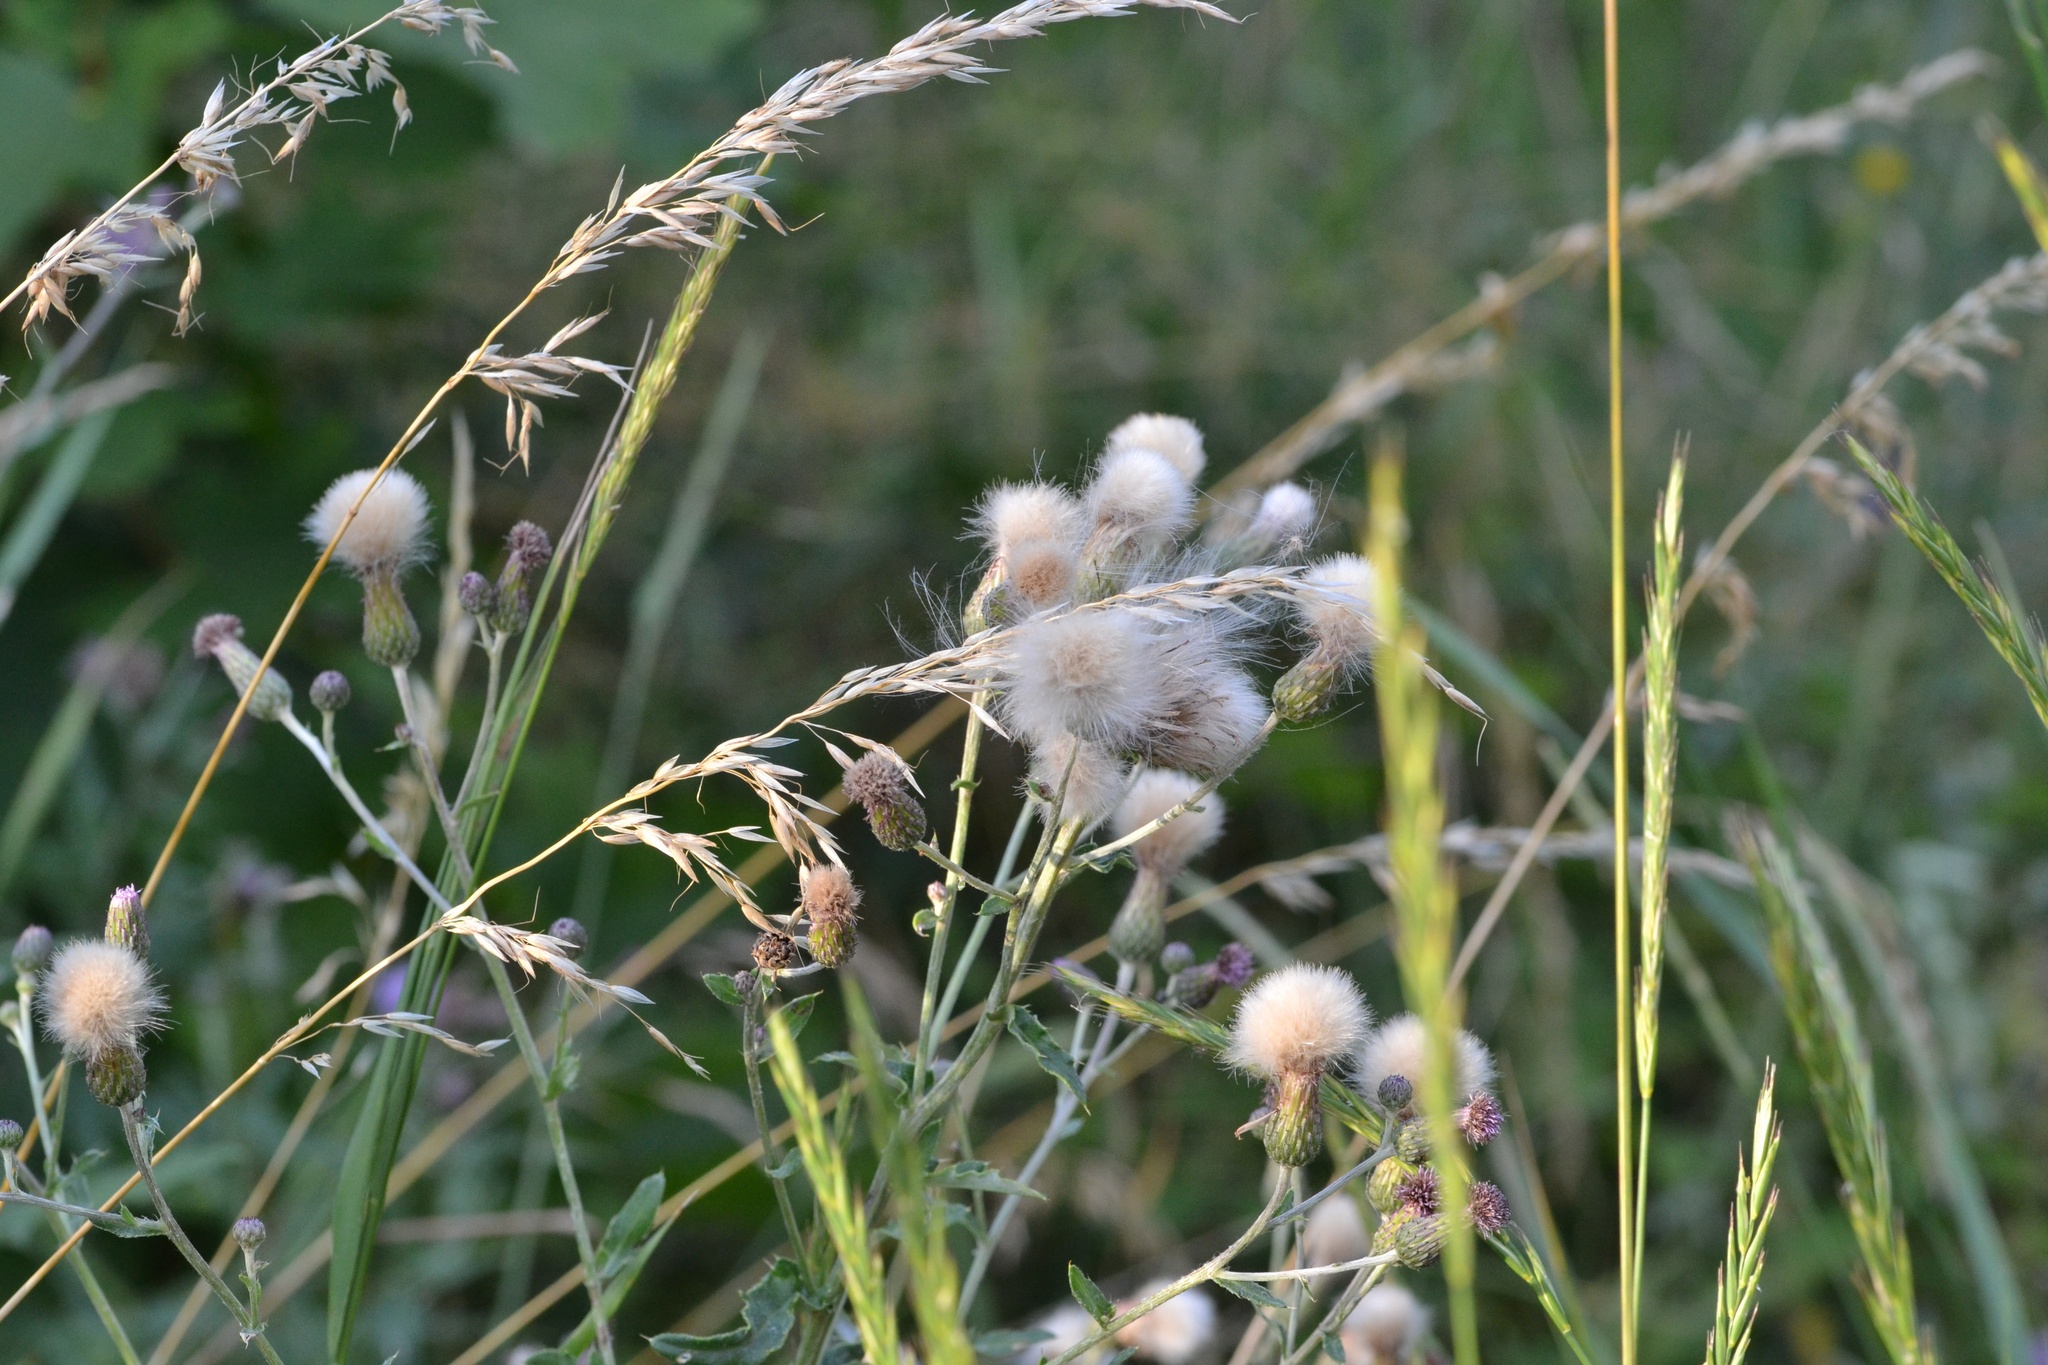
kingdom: Plantae
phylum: Tracheophyta
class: Magnoliopsida
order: Asterales
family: Asteraceae
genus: Cirsium
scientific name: Cirsium arvense
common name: Creeping thistle
